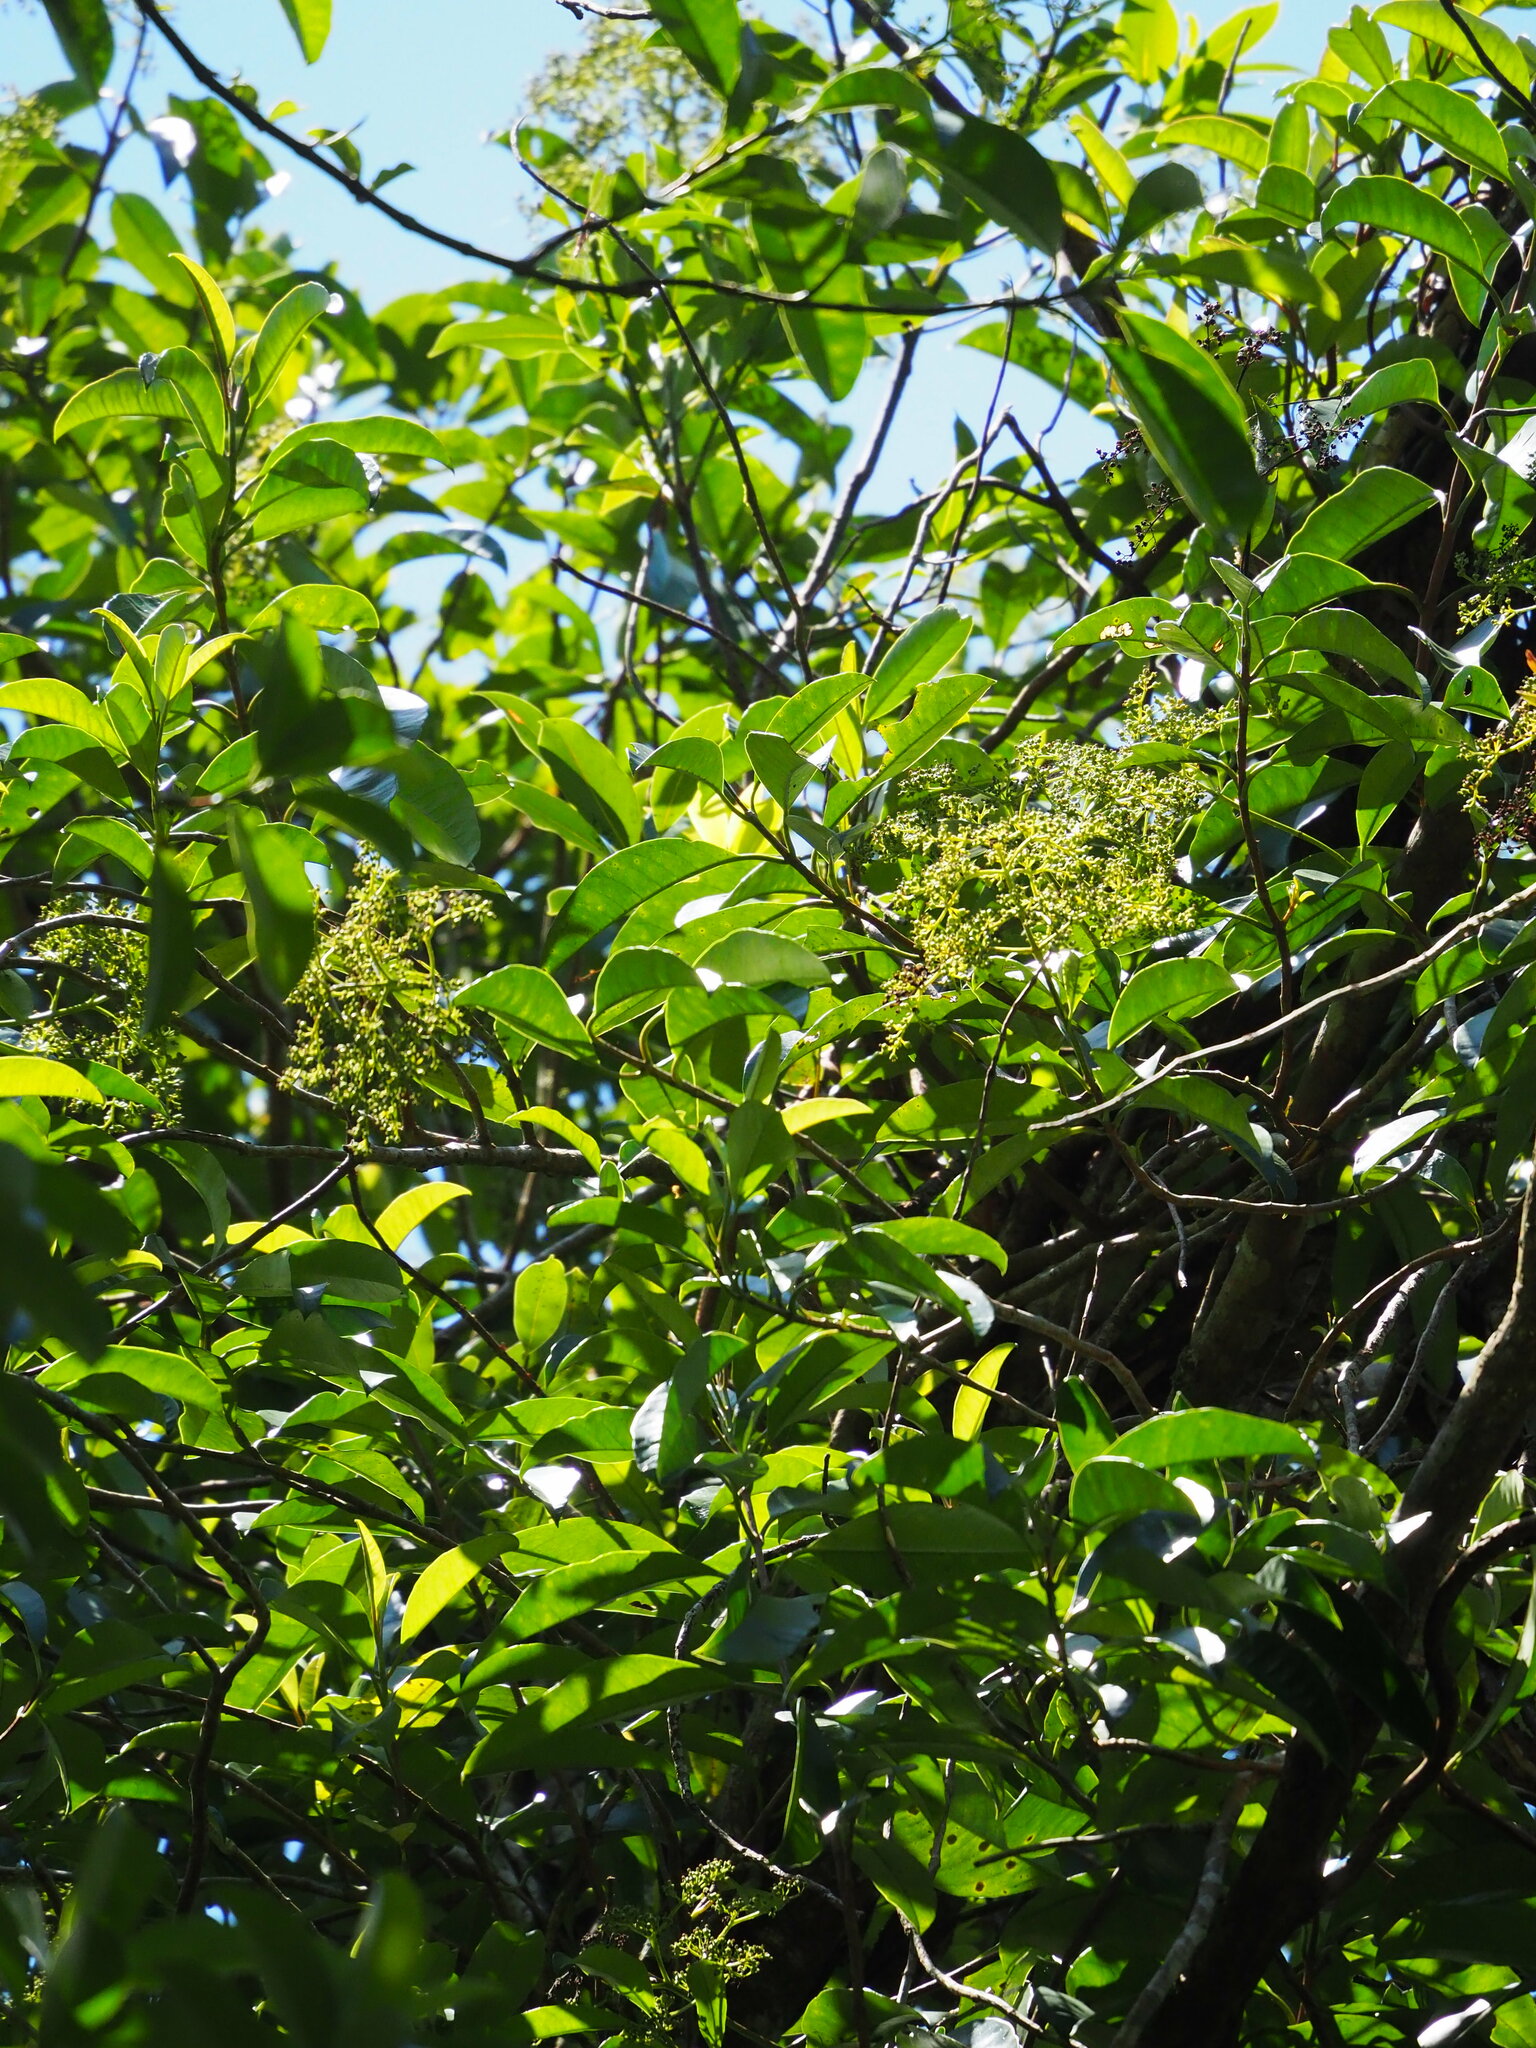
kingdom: Plantae
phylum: Tracheophyta
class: Magnoliopsida
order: Cornales
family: Hydrangeaceae
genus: Hydrangea
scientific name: Hydrangea viburnoides
